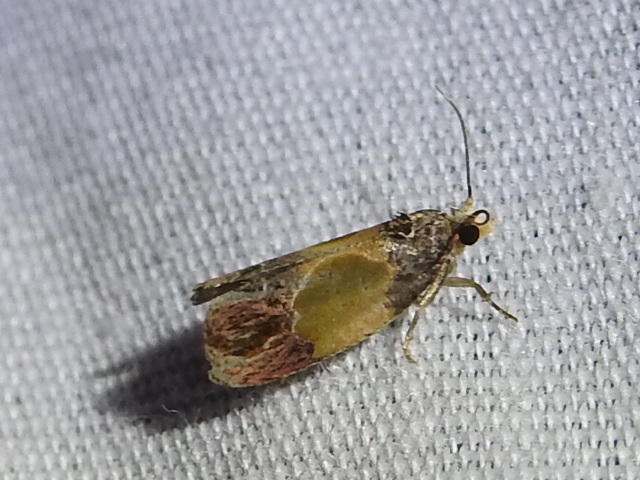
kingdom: Animalia
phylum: Arthropoda
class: Insecta
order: Lepidoptera
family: Tortricidae
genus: Eumarozia
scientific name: Eumarozia malachitana
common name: Sculptured moth
